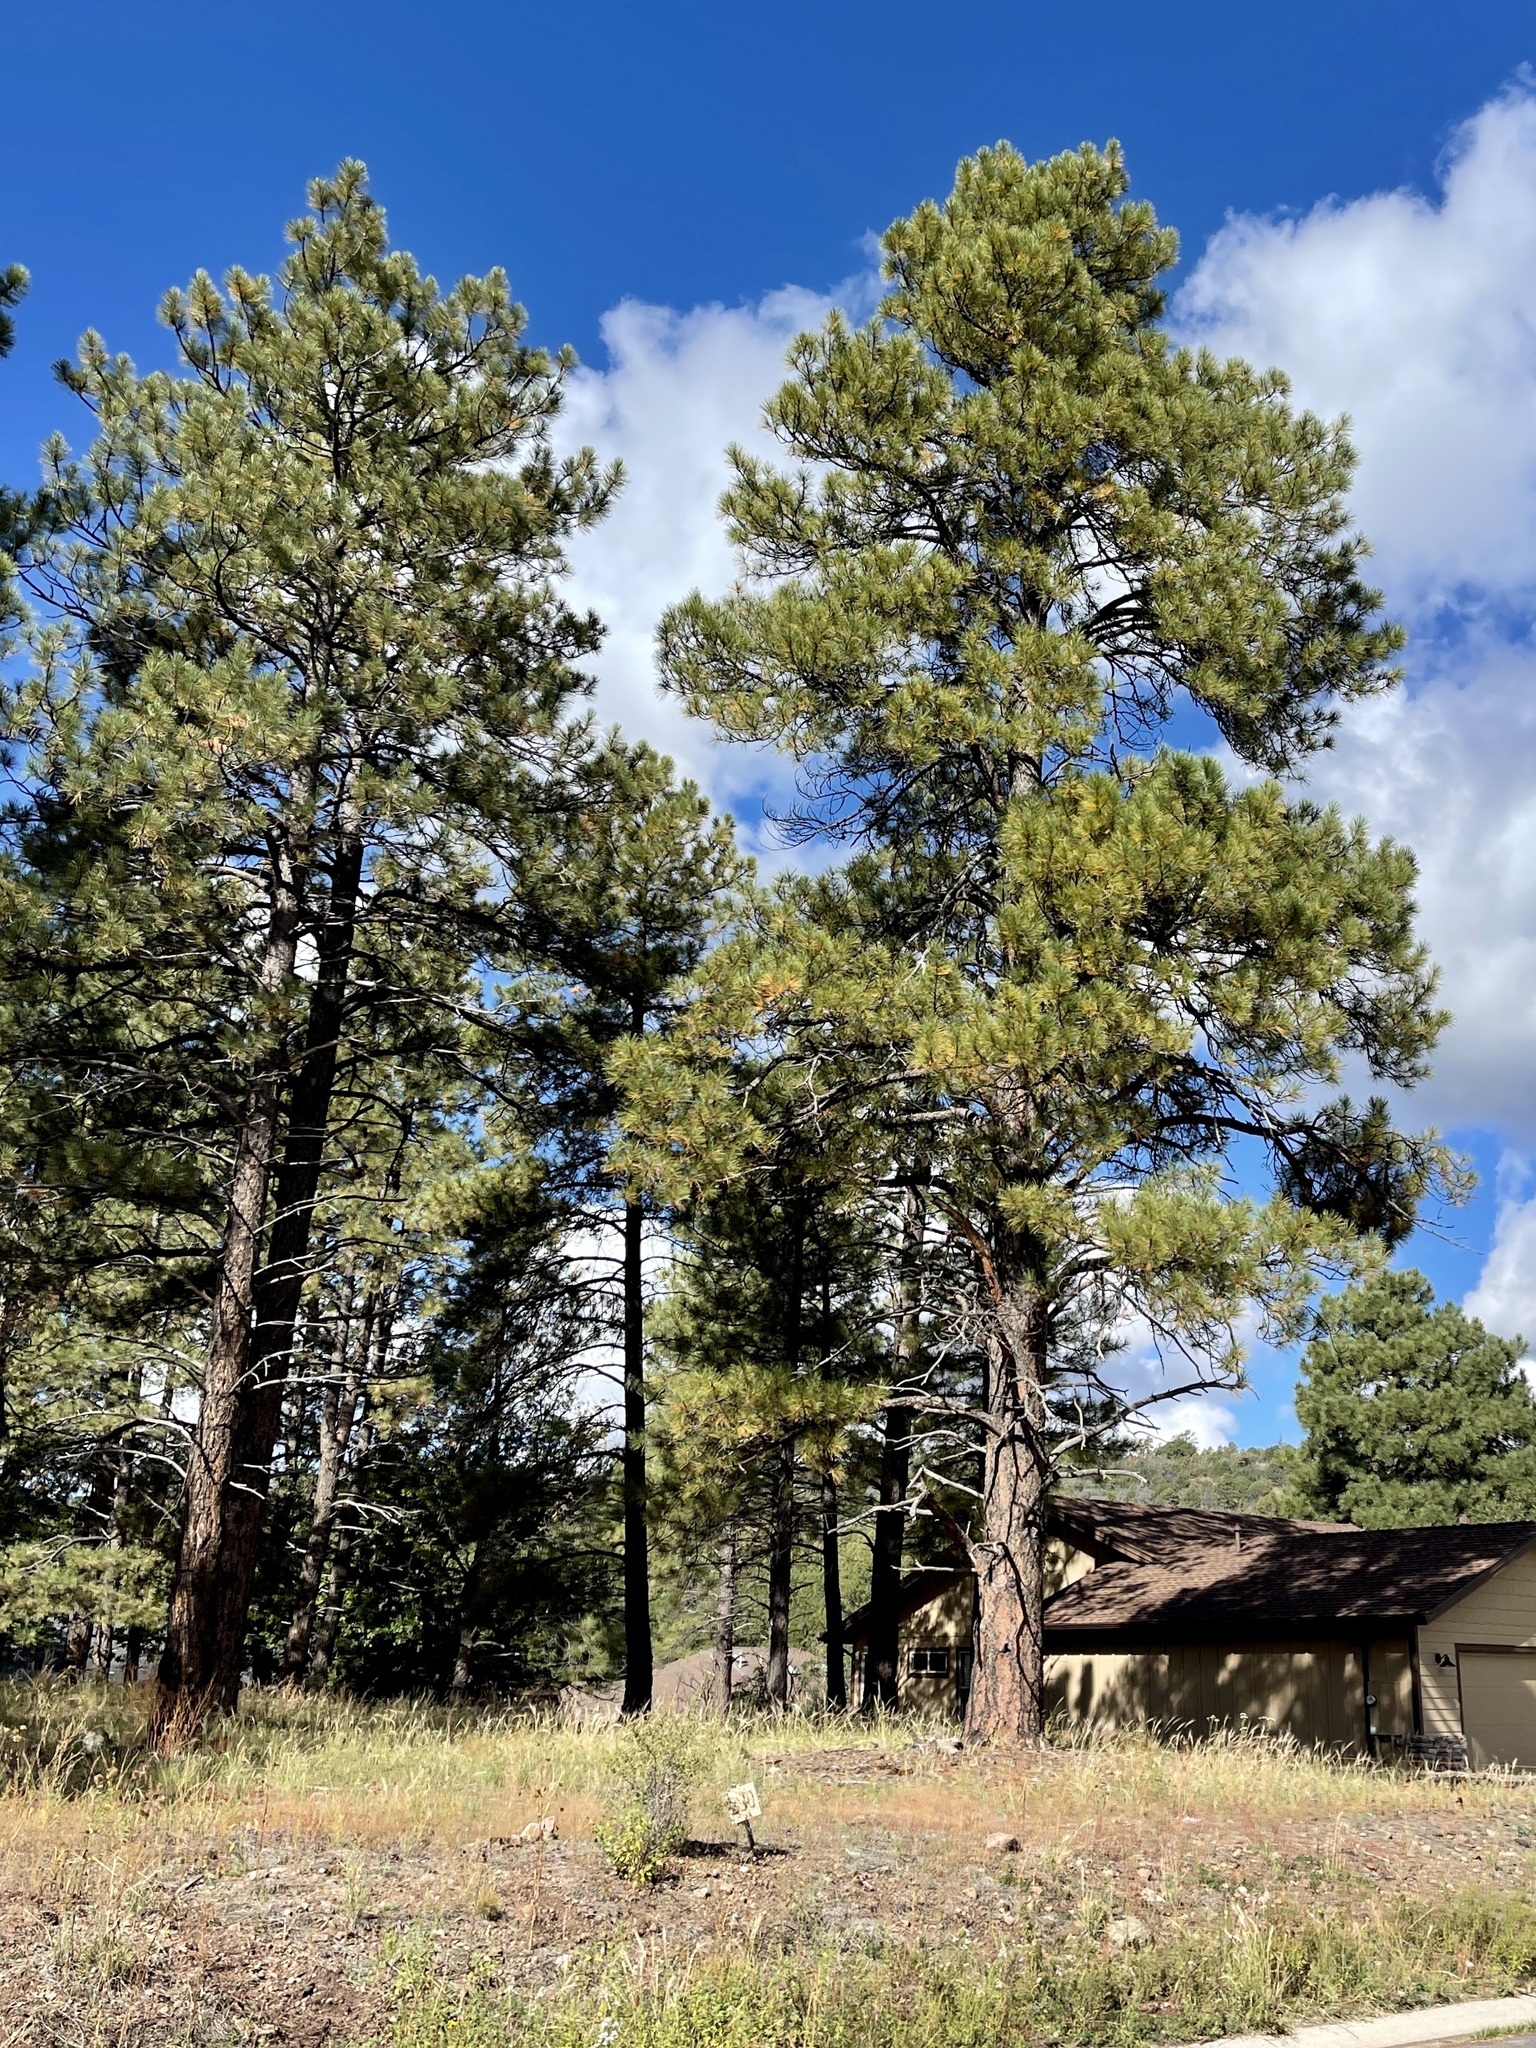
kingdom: Plantae
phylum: Tracheophyta
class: Pinopsida
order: Pinales
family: Pinaceae
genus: Pinus
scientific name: Pinus ponderosa
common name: Western yellow-pine
